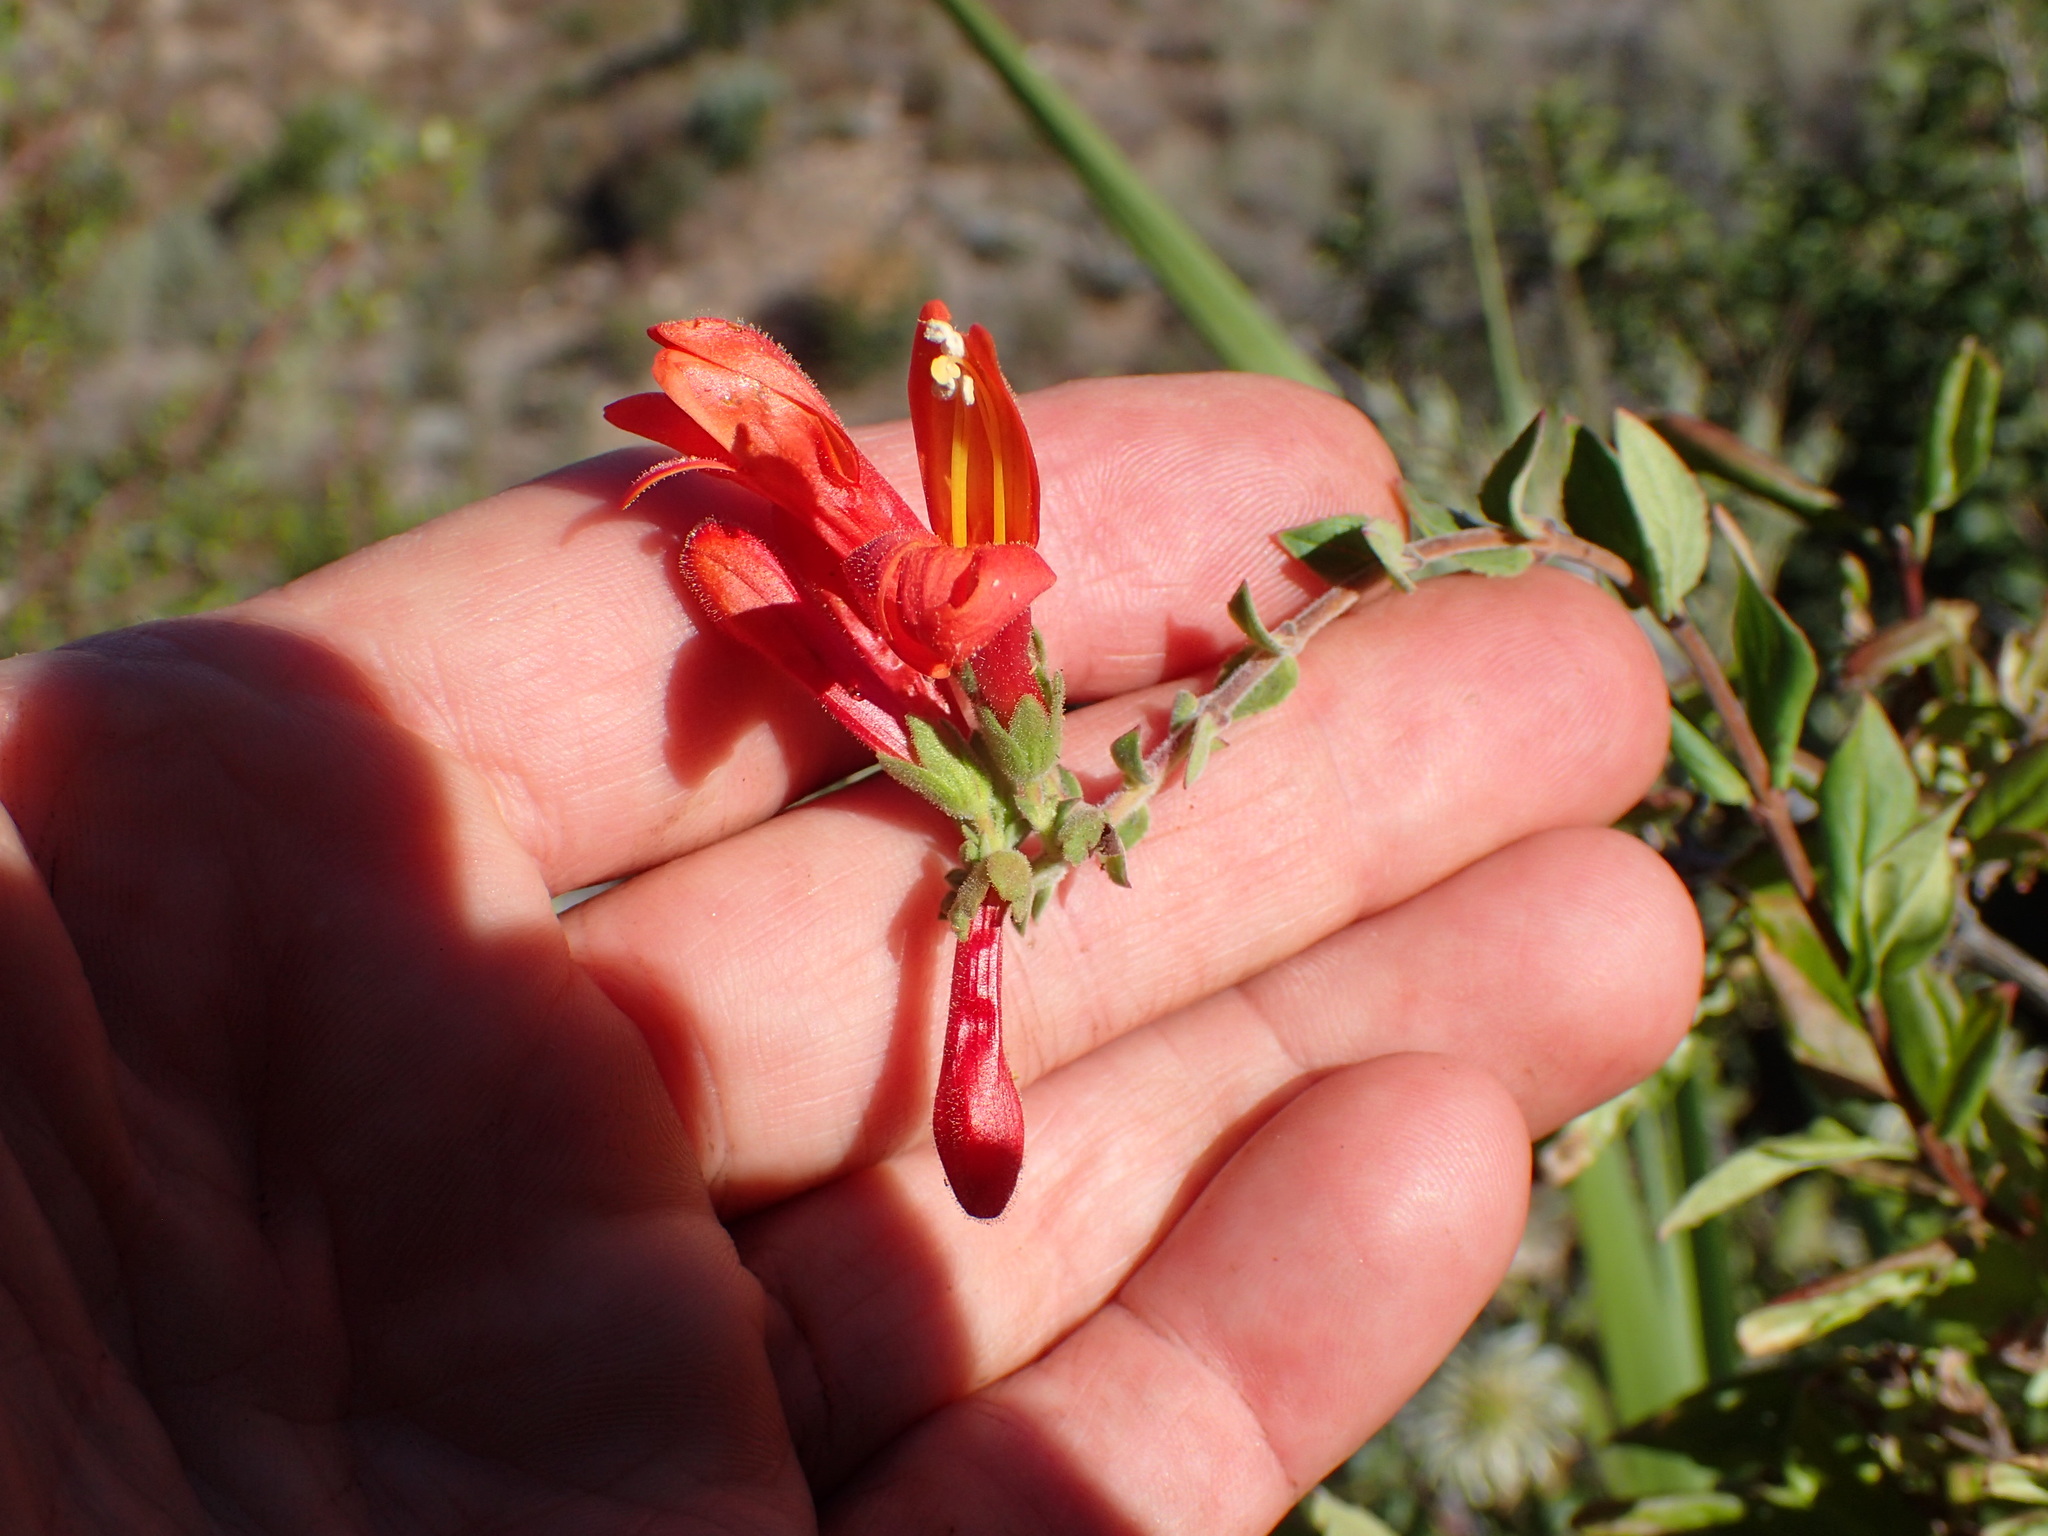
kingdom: Plantae
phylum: Tracheophyta
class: Magnoliopsida
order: Lamiales
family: Plantaginaceae
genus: Keckiella
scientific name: Keckiella cordifolia
